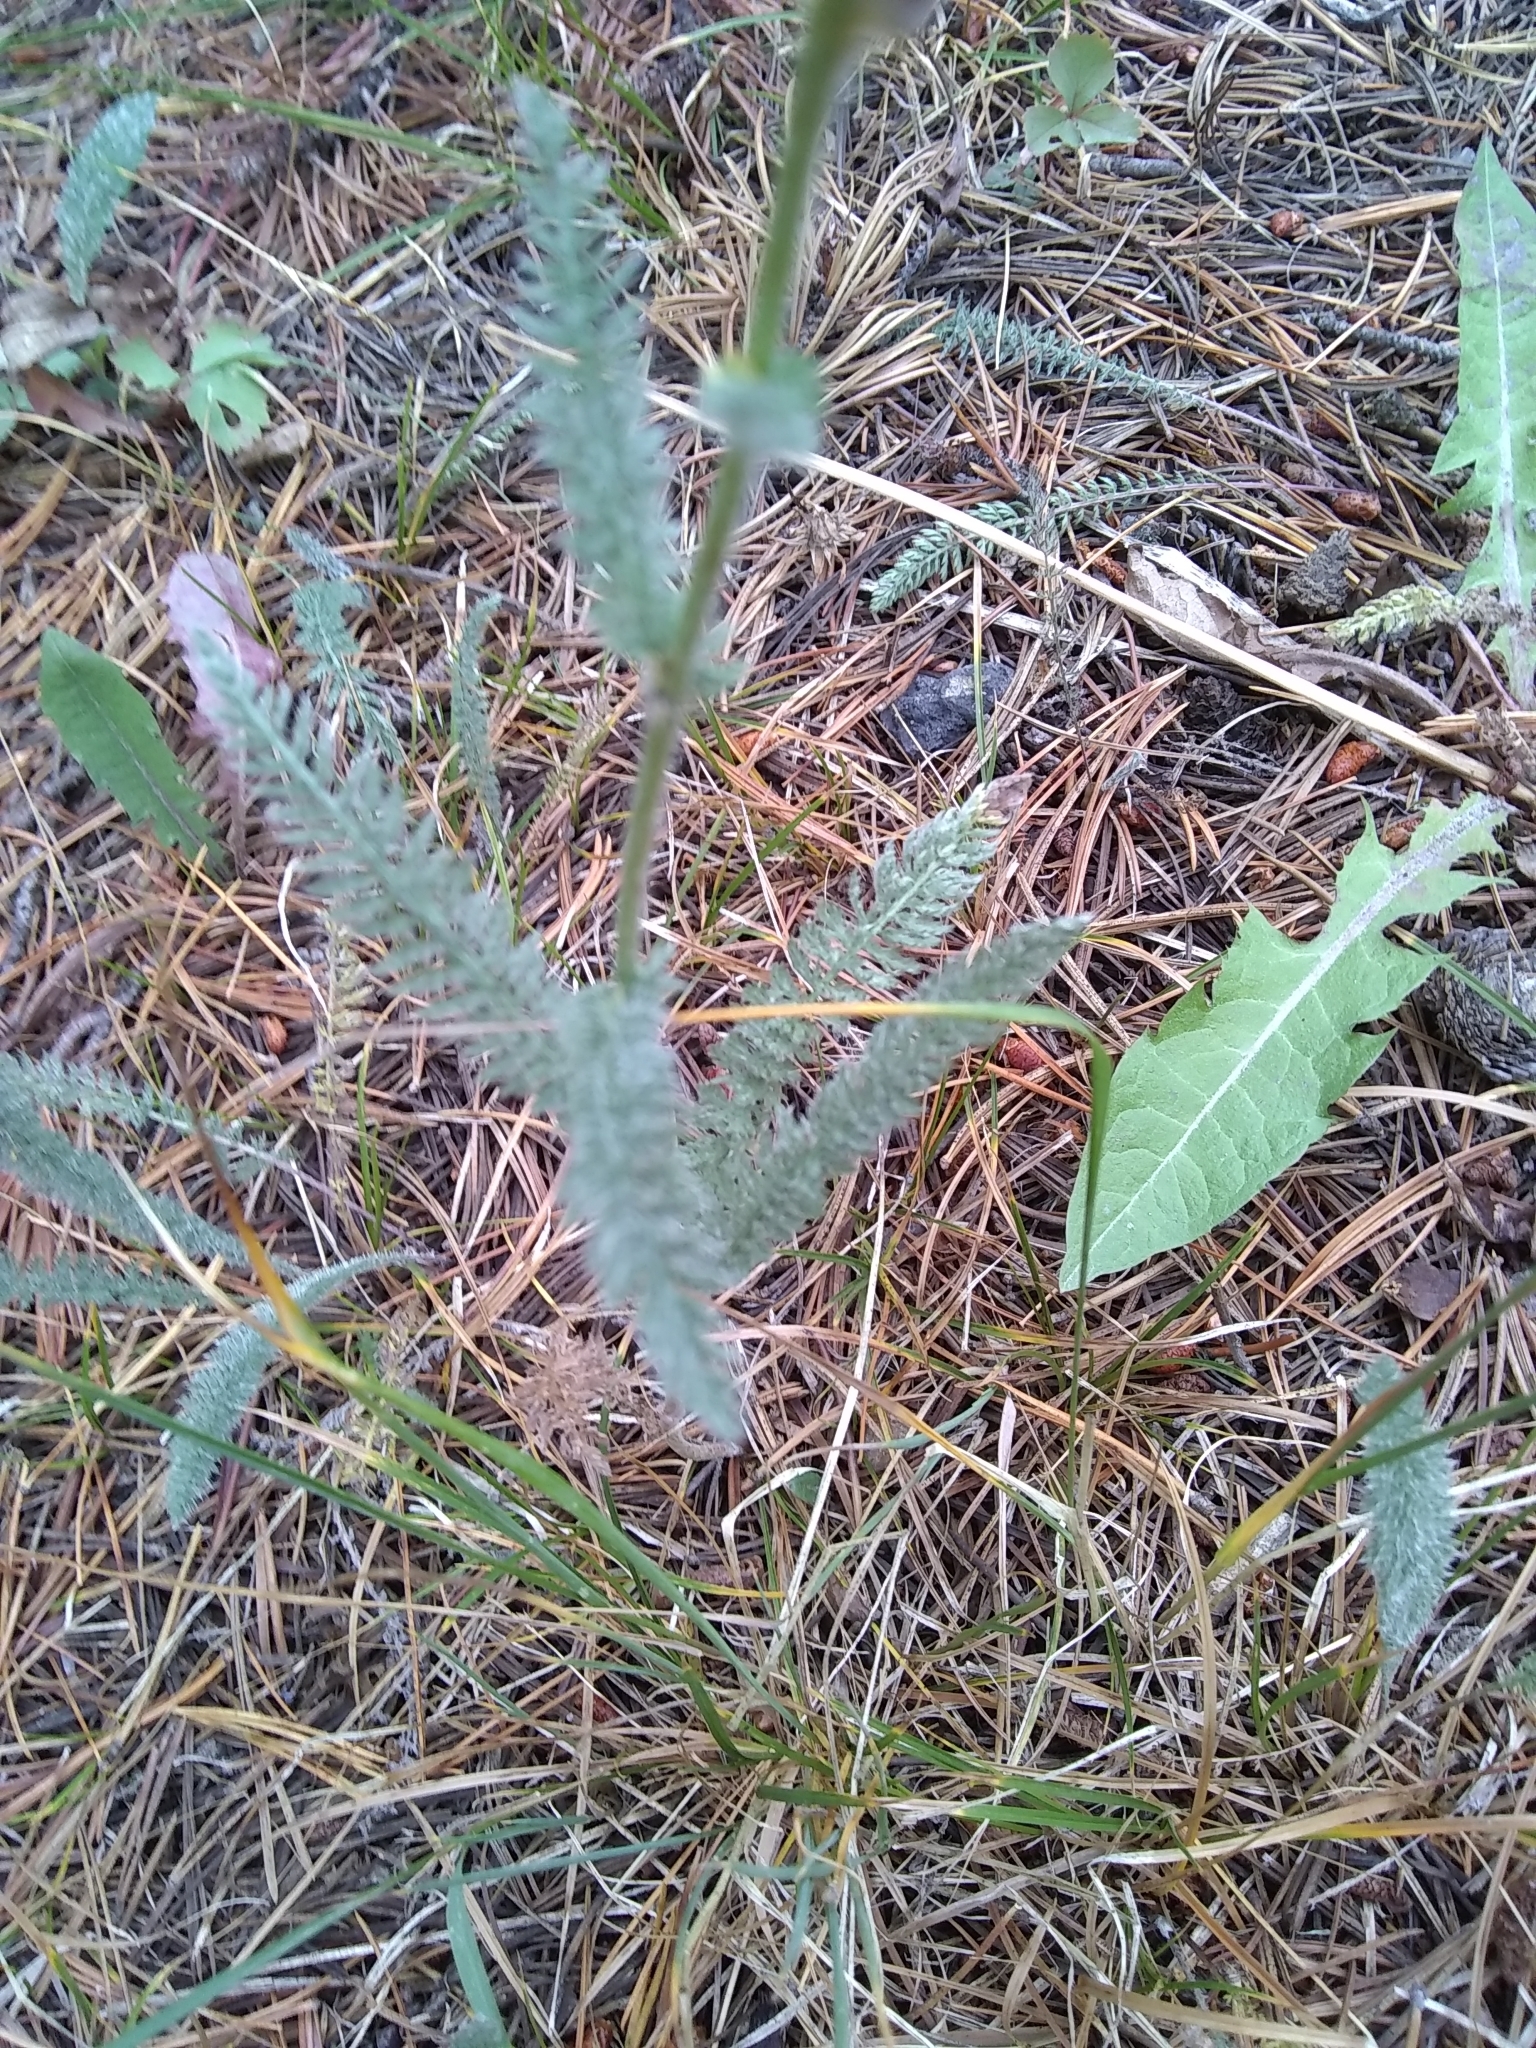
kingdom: Plantae
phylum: Tracheophyta
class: Magnoliopsida
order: Asterales
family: Asteraceae
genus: Achillea
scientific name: Achillea millefolium
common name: Yarrow
